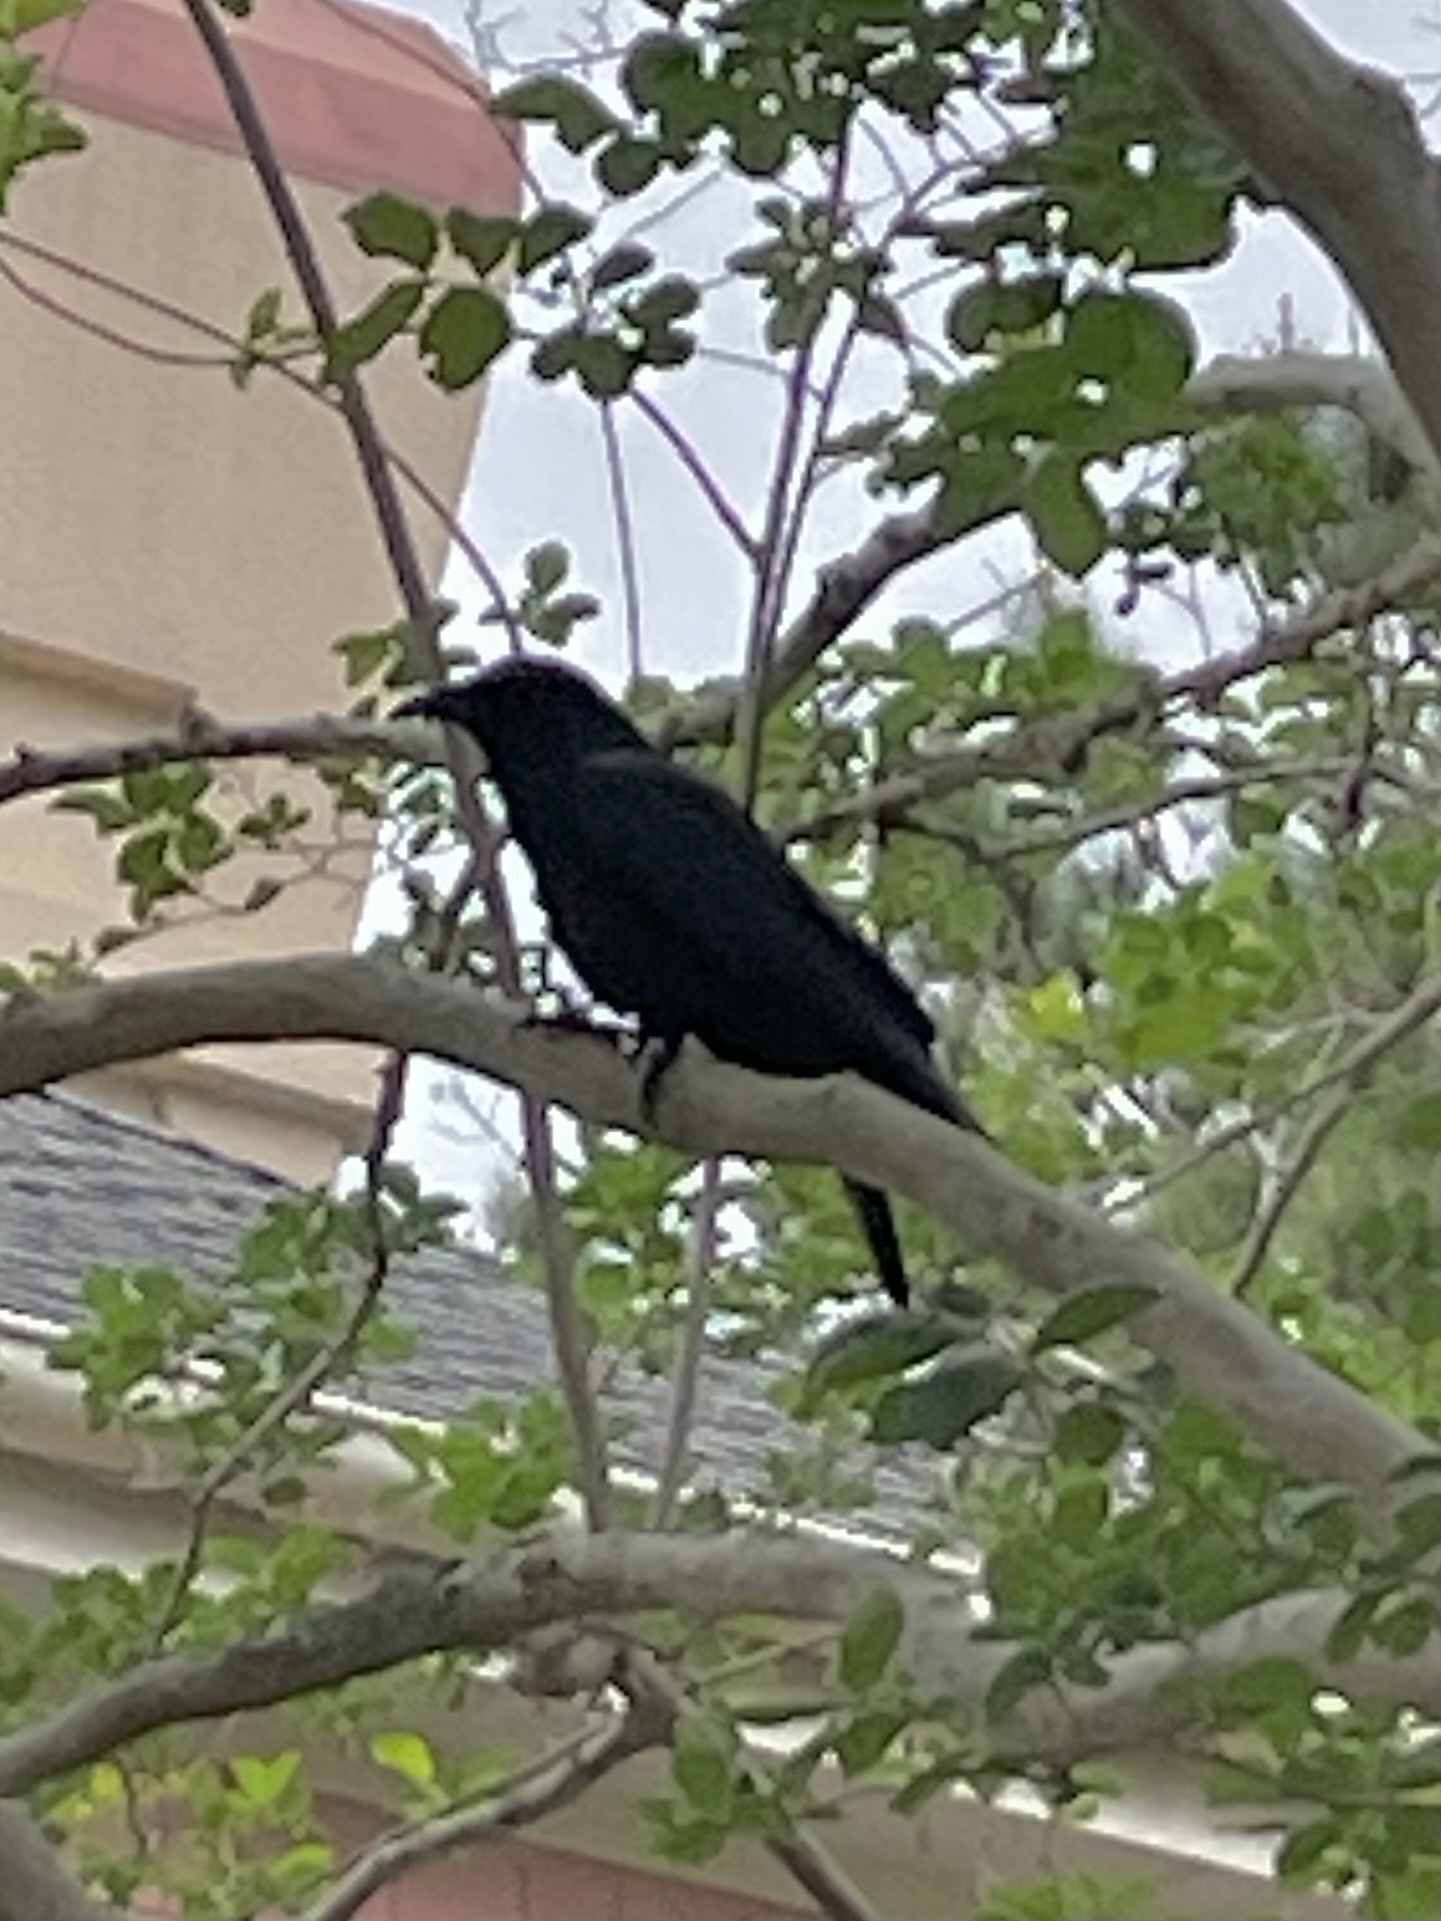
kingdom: Animalia
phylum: Chordata
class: Aves
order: Passeriformes
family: Corvidae
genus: Corvus
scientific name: Corvus ossifragus
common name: Fish crow
